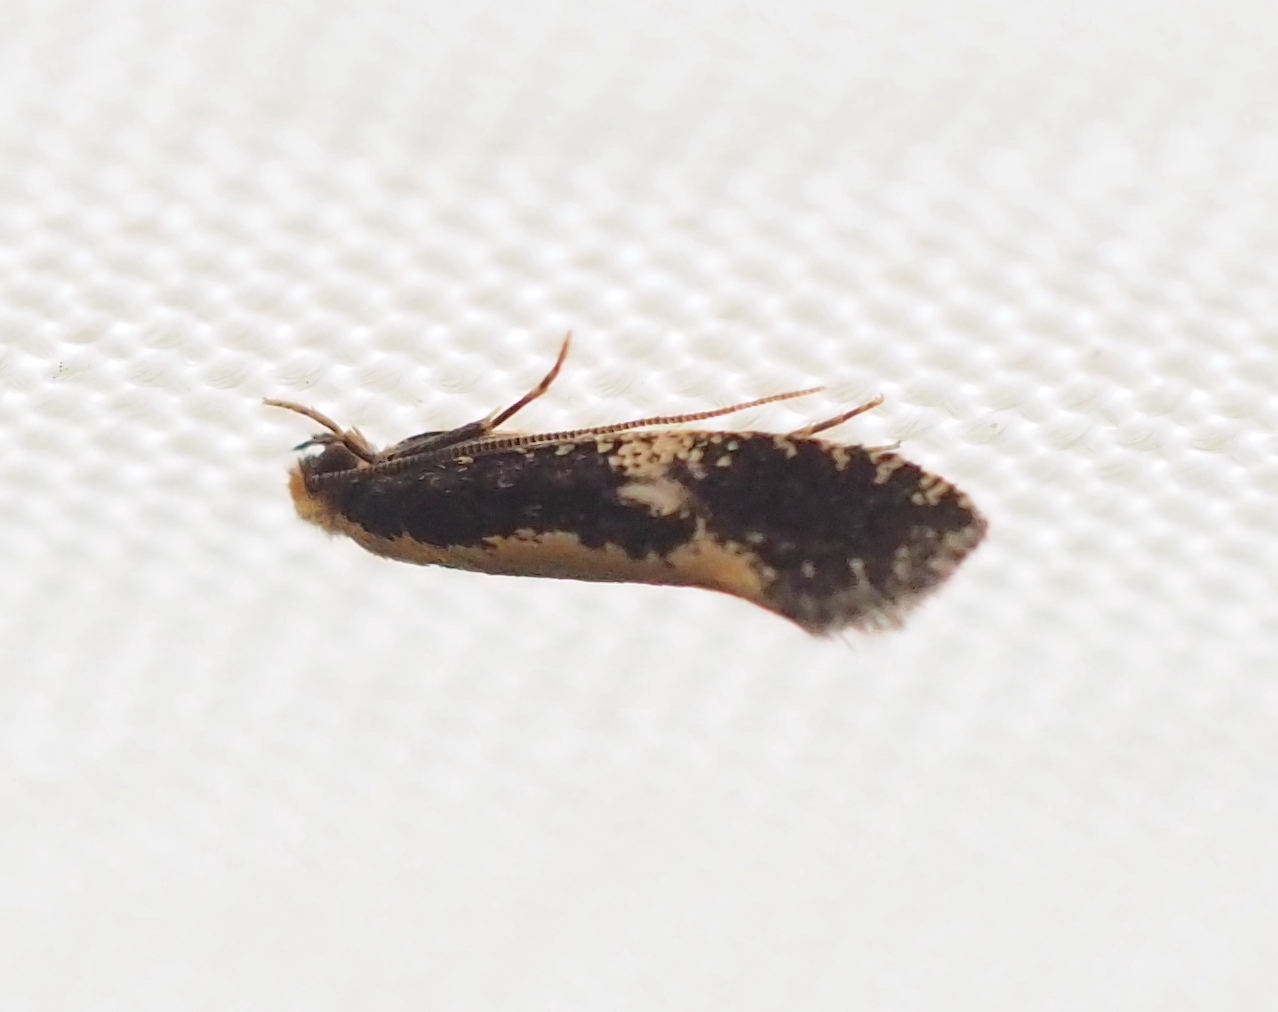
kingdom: Animalia
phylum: Arthropoda
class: Insecta
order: Lepidoptera
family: Tineidae
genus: Monopis
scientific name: Monopis obviella
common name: Tineid moth
